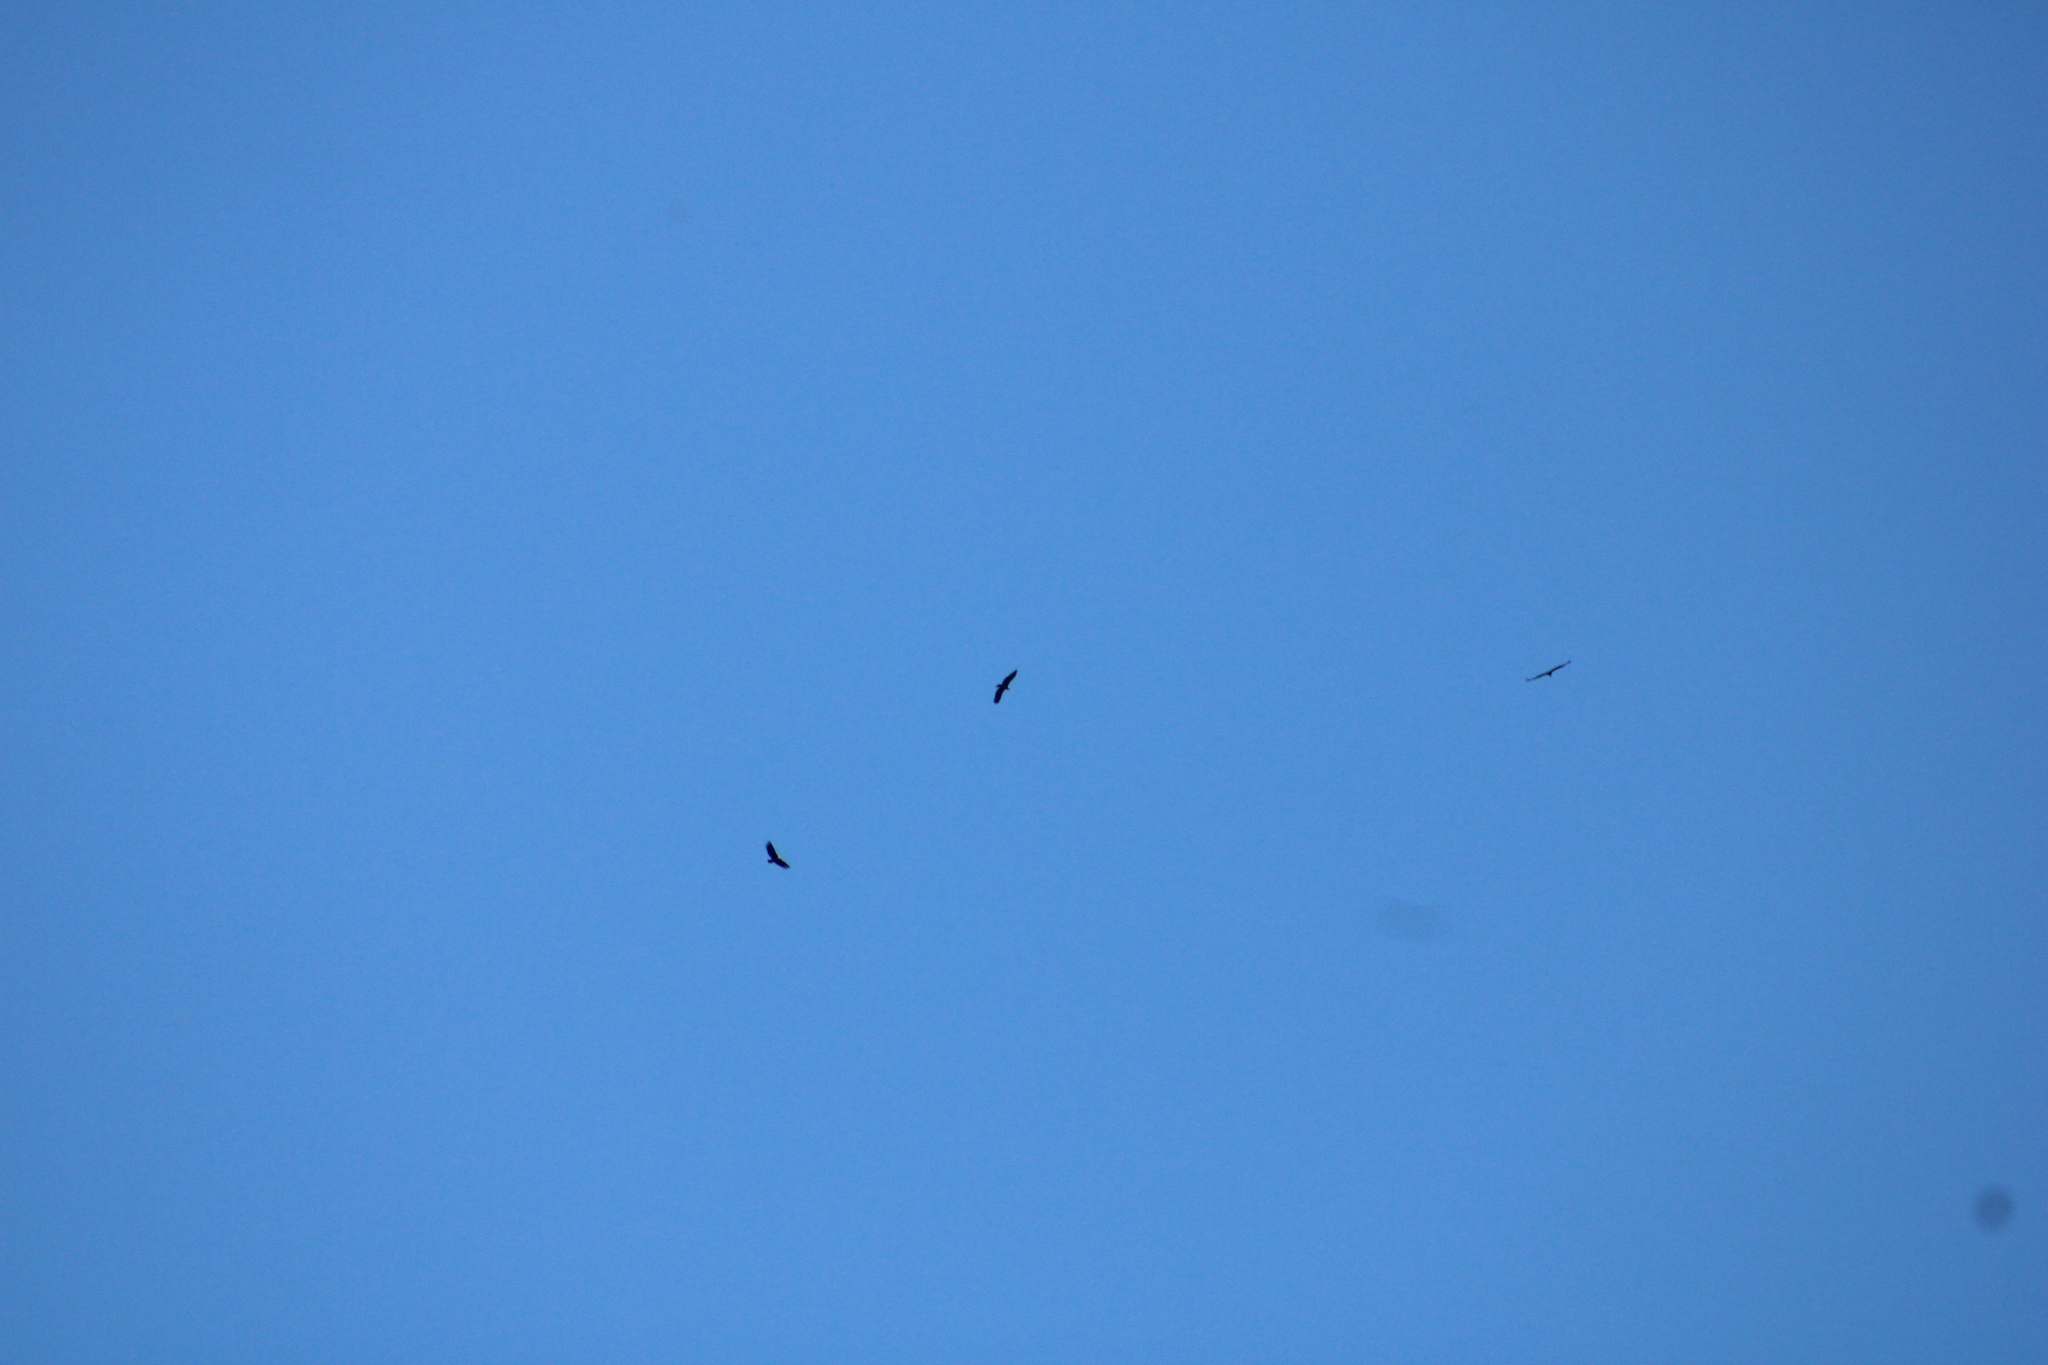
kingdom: Animalia
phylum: Chordata
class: Aves
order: Accipitriformes
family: Cathartidae
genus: Vultur
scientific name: Vultur gryphus
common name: Andean condor
